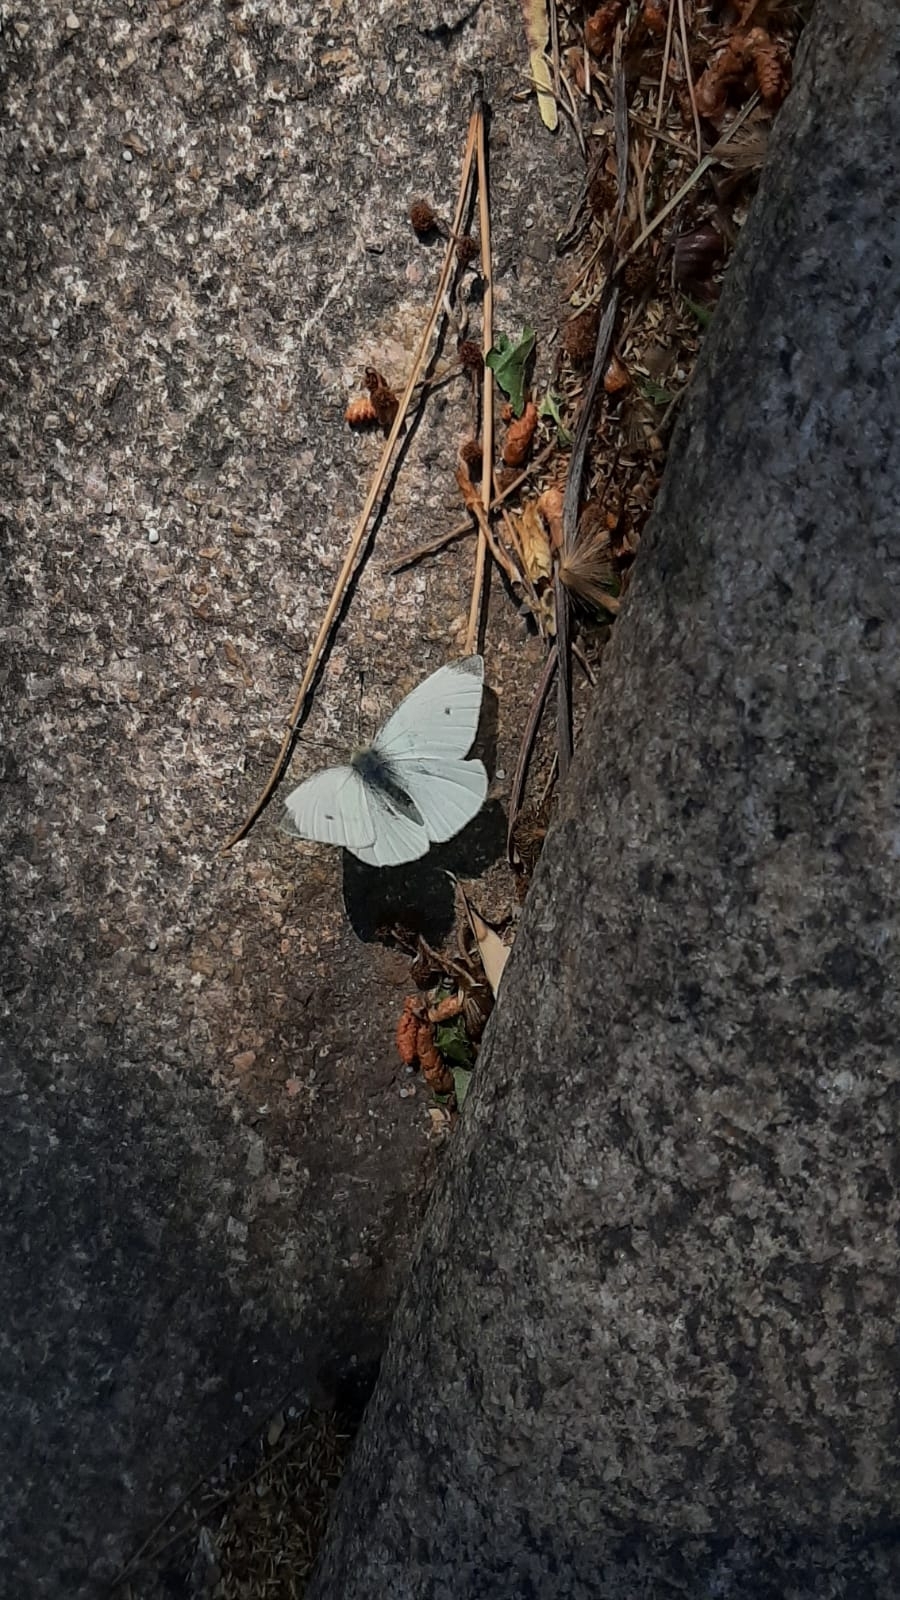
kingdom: Animalia
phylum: Arthropoda
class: Insecta
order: Lepidoptera
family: Pieridae
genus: Pieris
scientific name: Pieris rapae
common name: Small white
